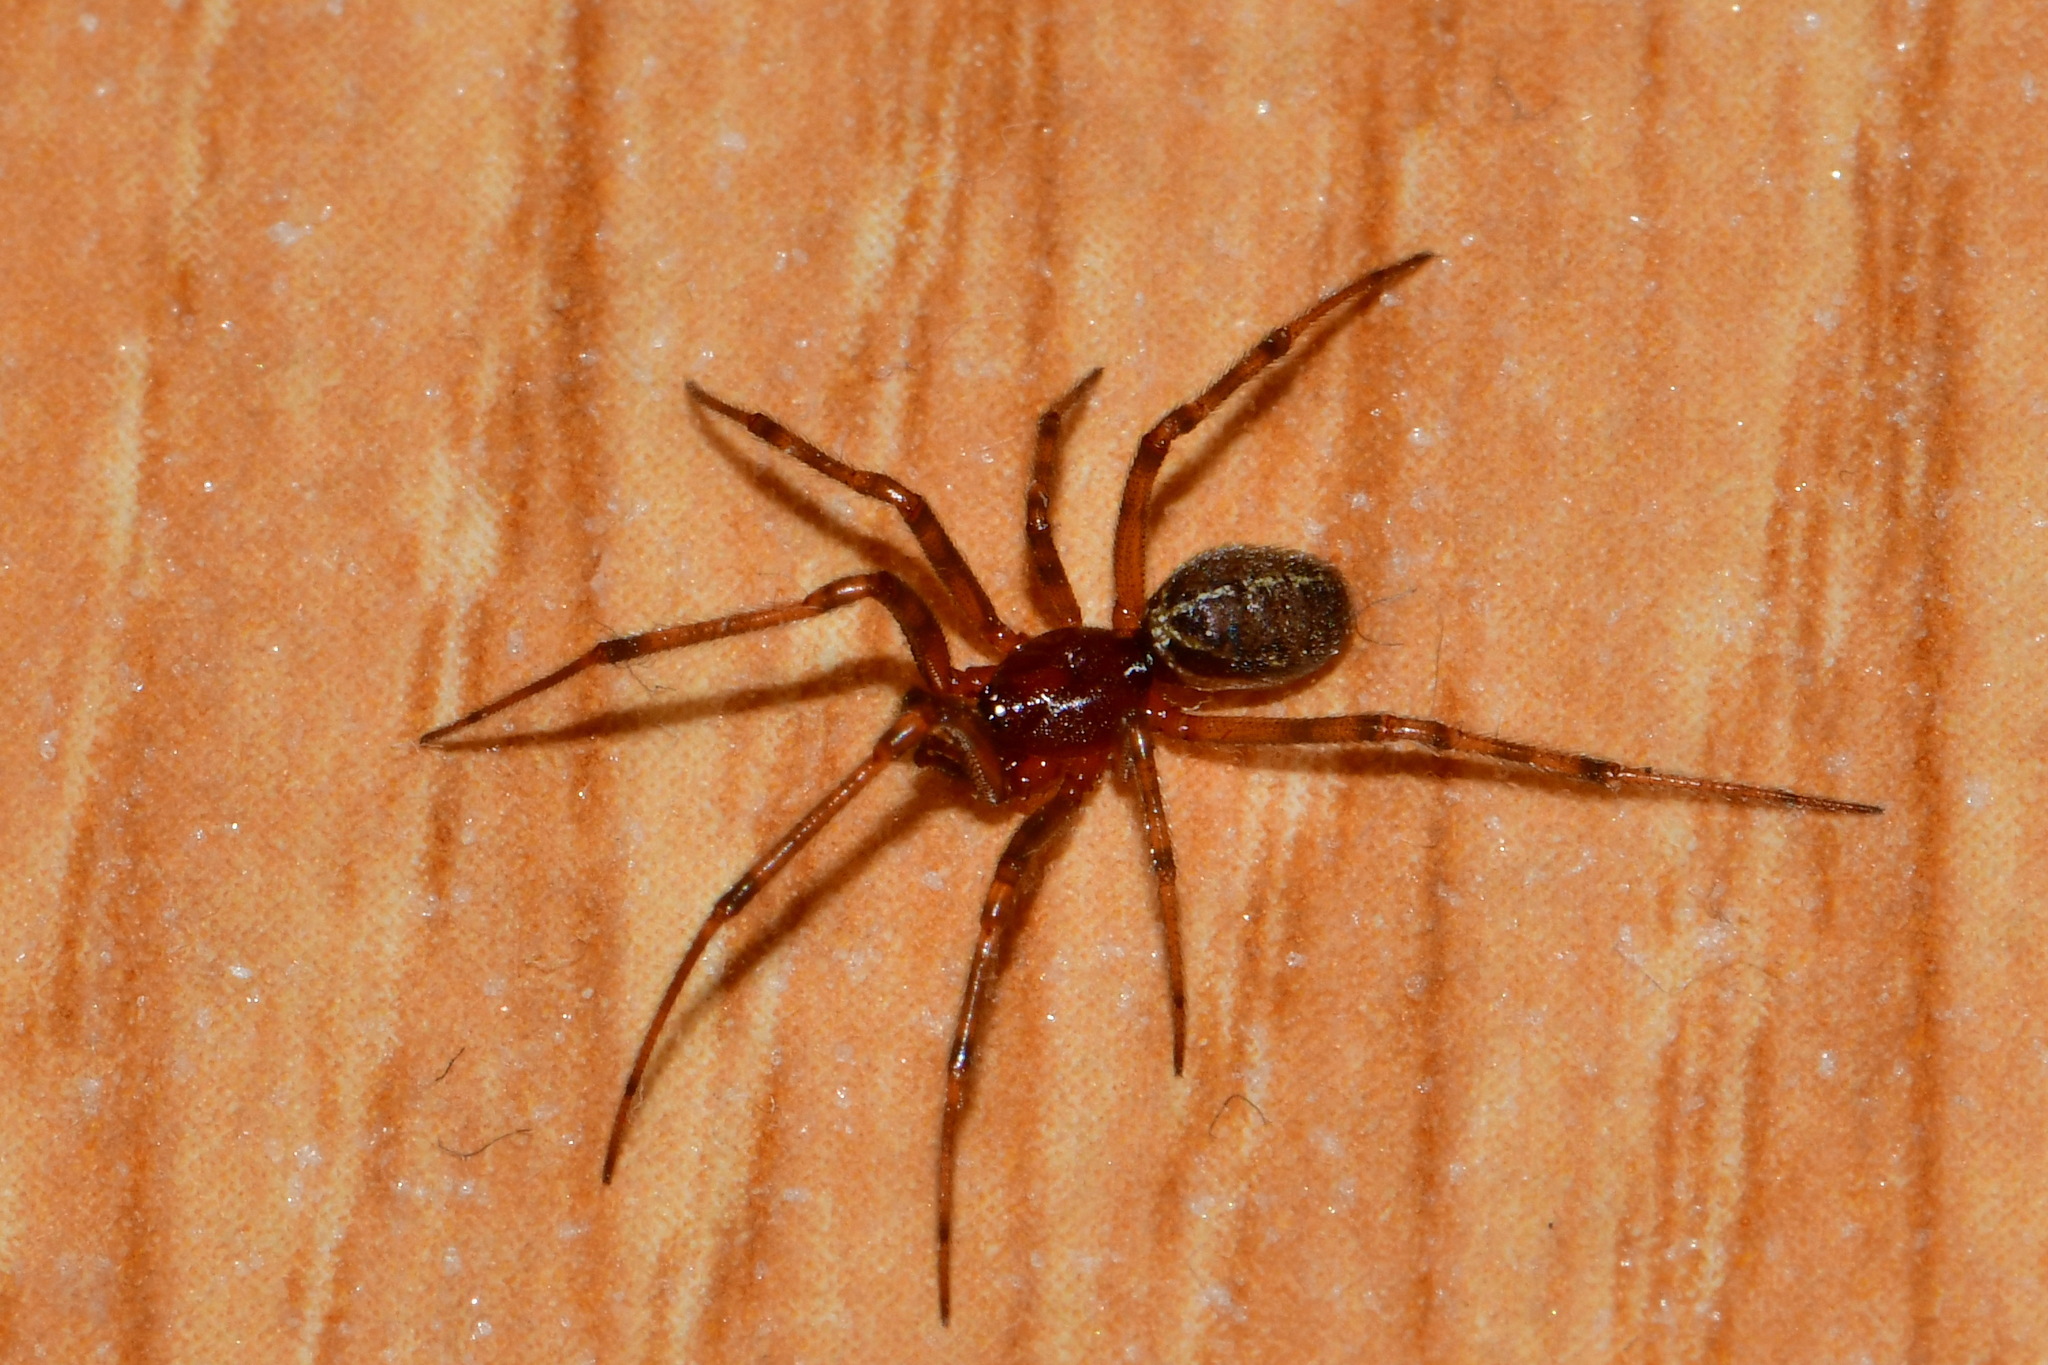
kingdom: Animalia
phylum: Arthropoda
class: Arachnida
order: Araneae
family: Theridiidae
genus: Steatoda
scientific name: Steatoda castanea
